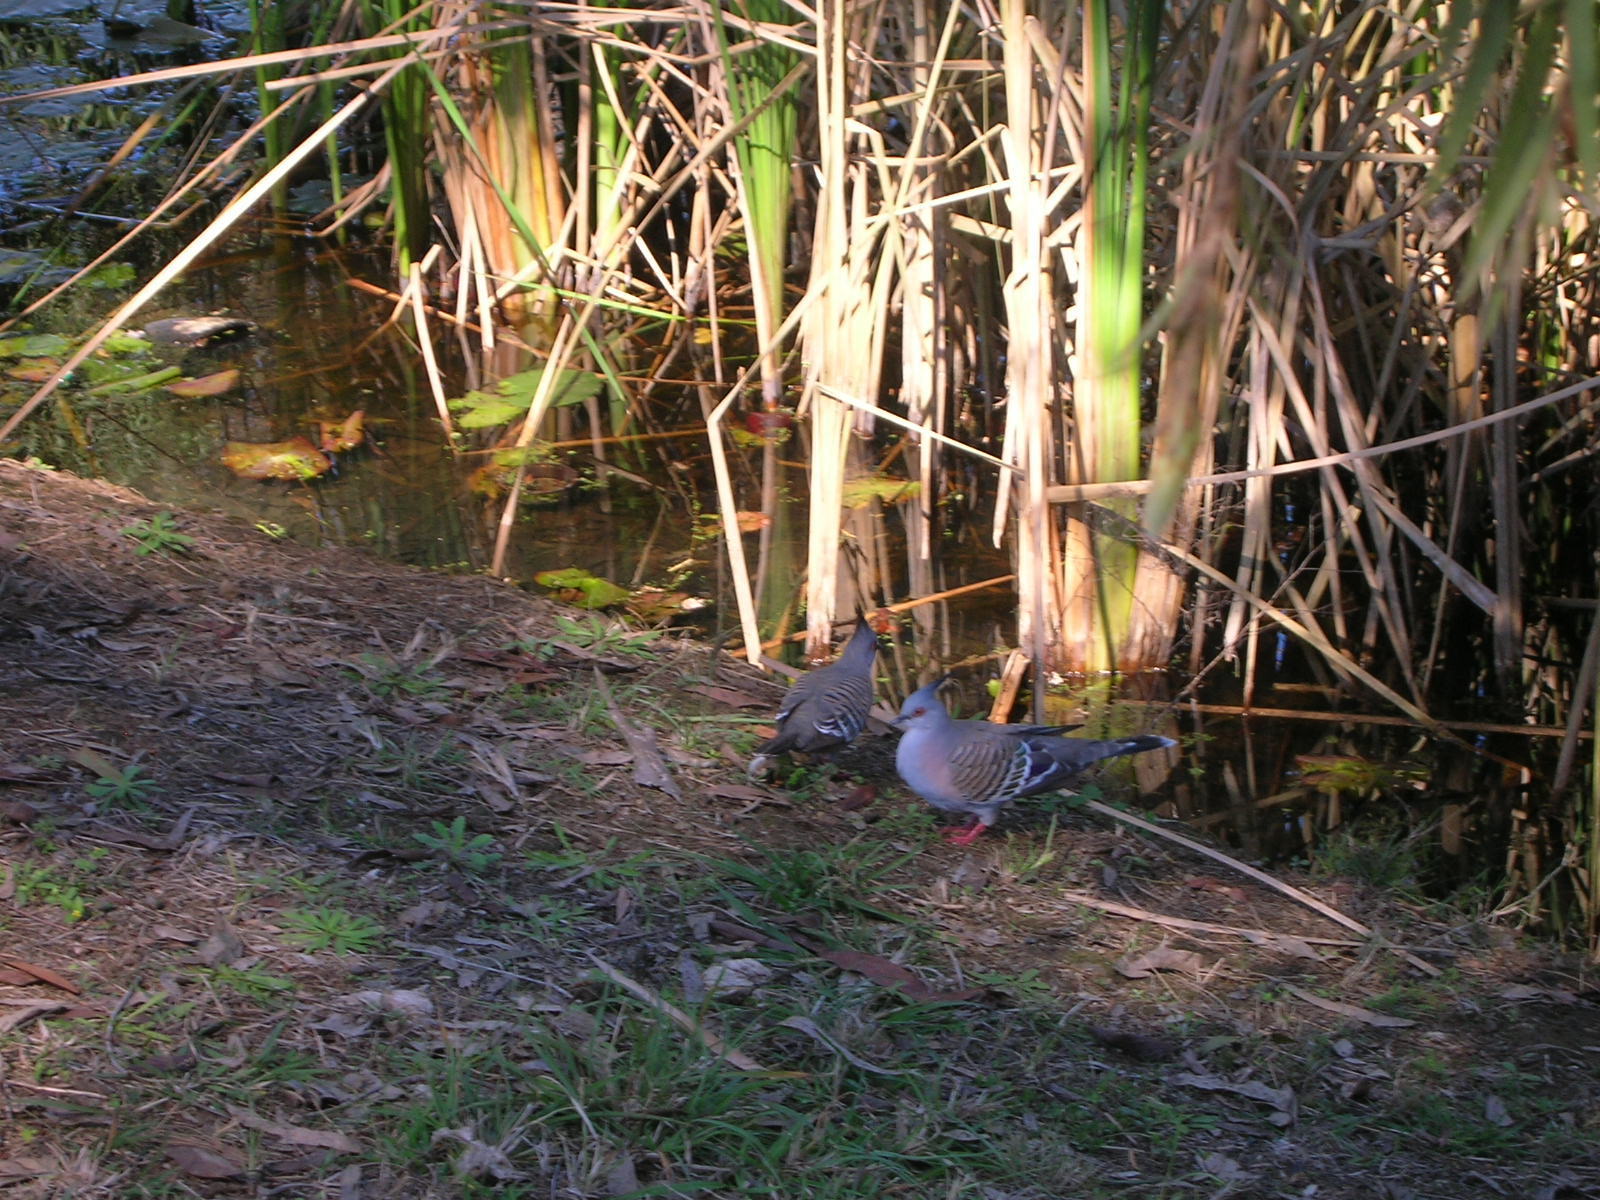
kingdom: Animalia
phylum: Chordata
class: Aves
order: Columbiformes
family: Columbidae
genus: Ocyphaps
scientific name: Ocyphaps lophotes
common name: Crested pigeon
